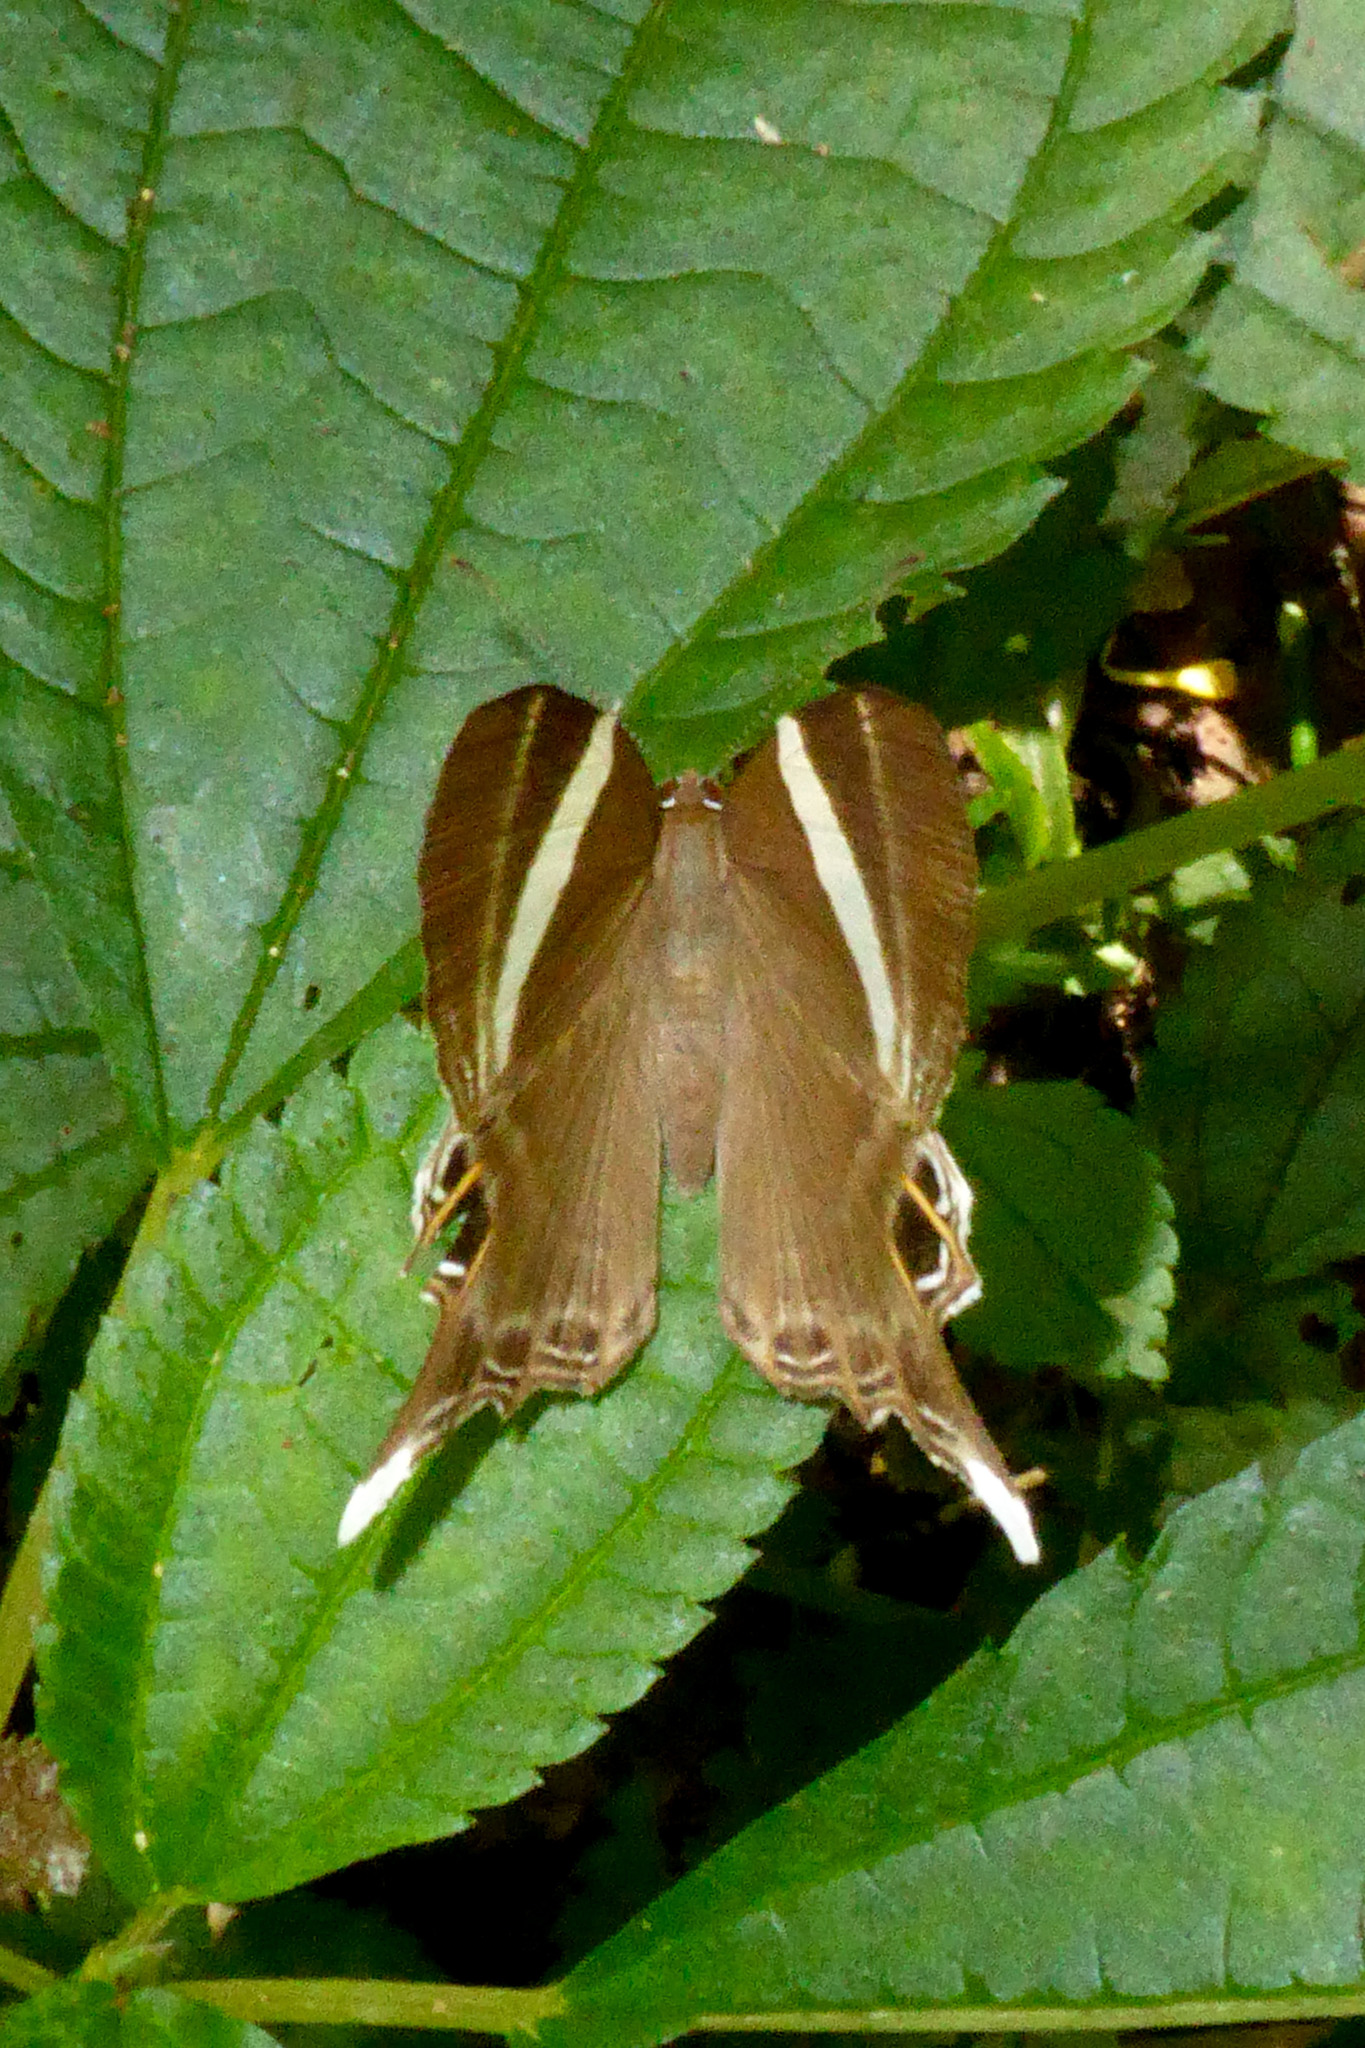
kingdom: Animalia
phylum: Arthropoda
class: Insecta
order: Lepidoptera
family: Lycaenidae
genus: Abisara
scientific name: Abisara neophron
